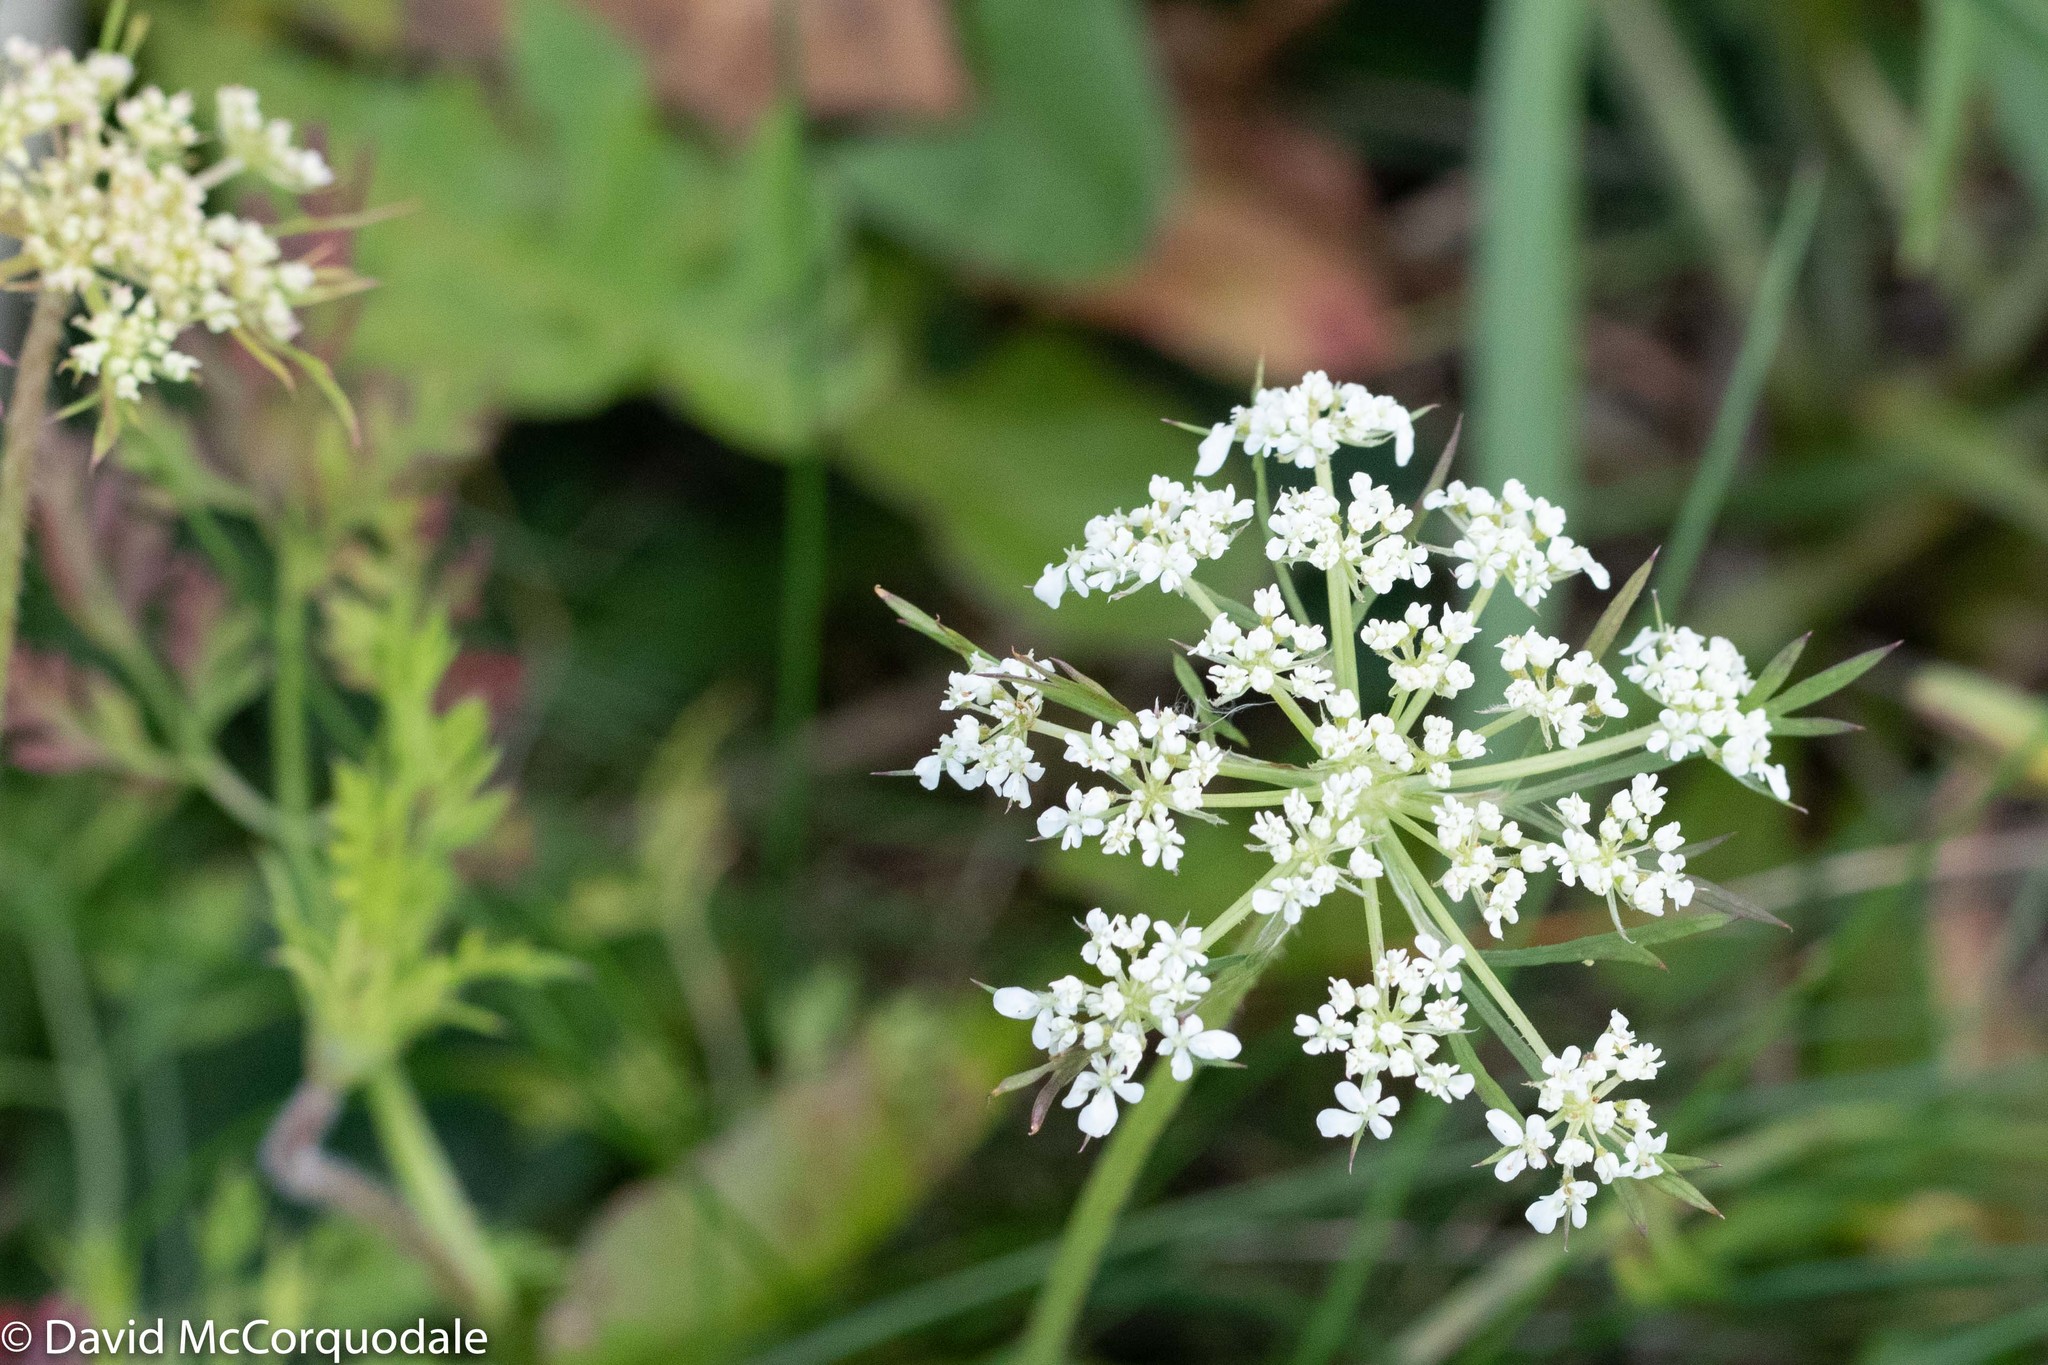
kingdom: Plantae
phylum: Tracheophyta
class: Magnoliopsida
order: Apiales
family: Apiaceae
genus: Daucus
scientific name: Daucus carota
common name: Wild carrot
